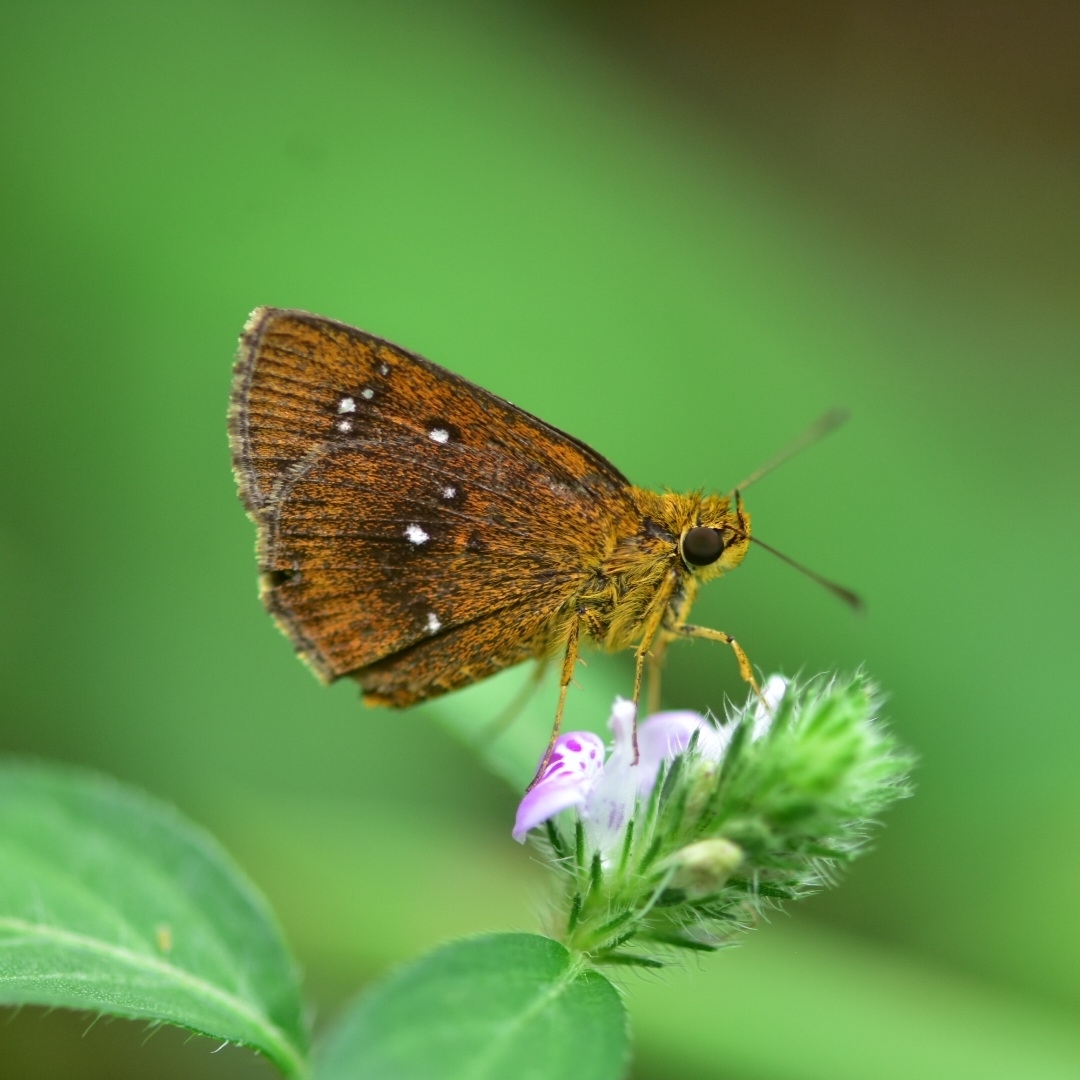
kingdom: Animalia
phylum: Arthropoda
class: Insecta
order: Lepidoptera
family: Hesperiidae
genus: Iambrix
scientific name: Iambrix salsala
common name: Chestnut bob
